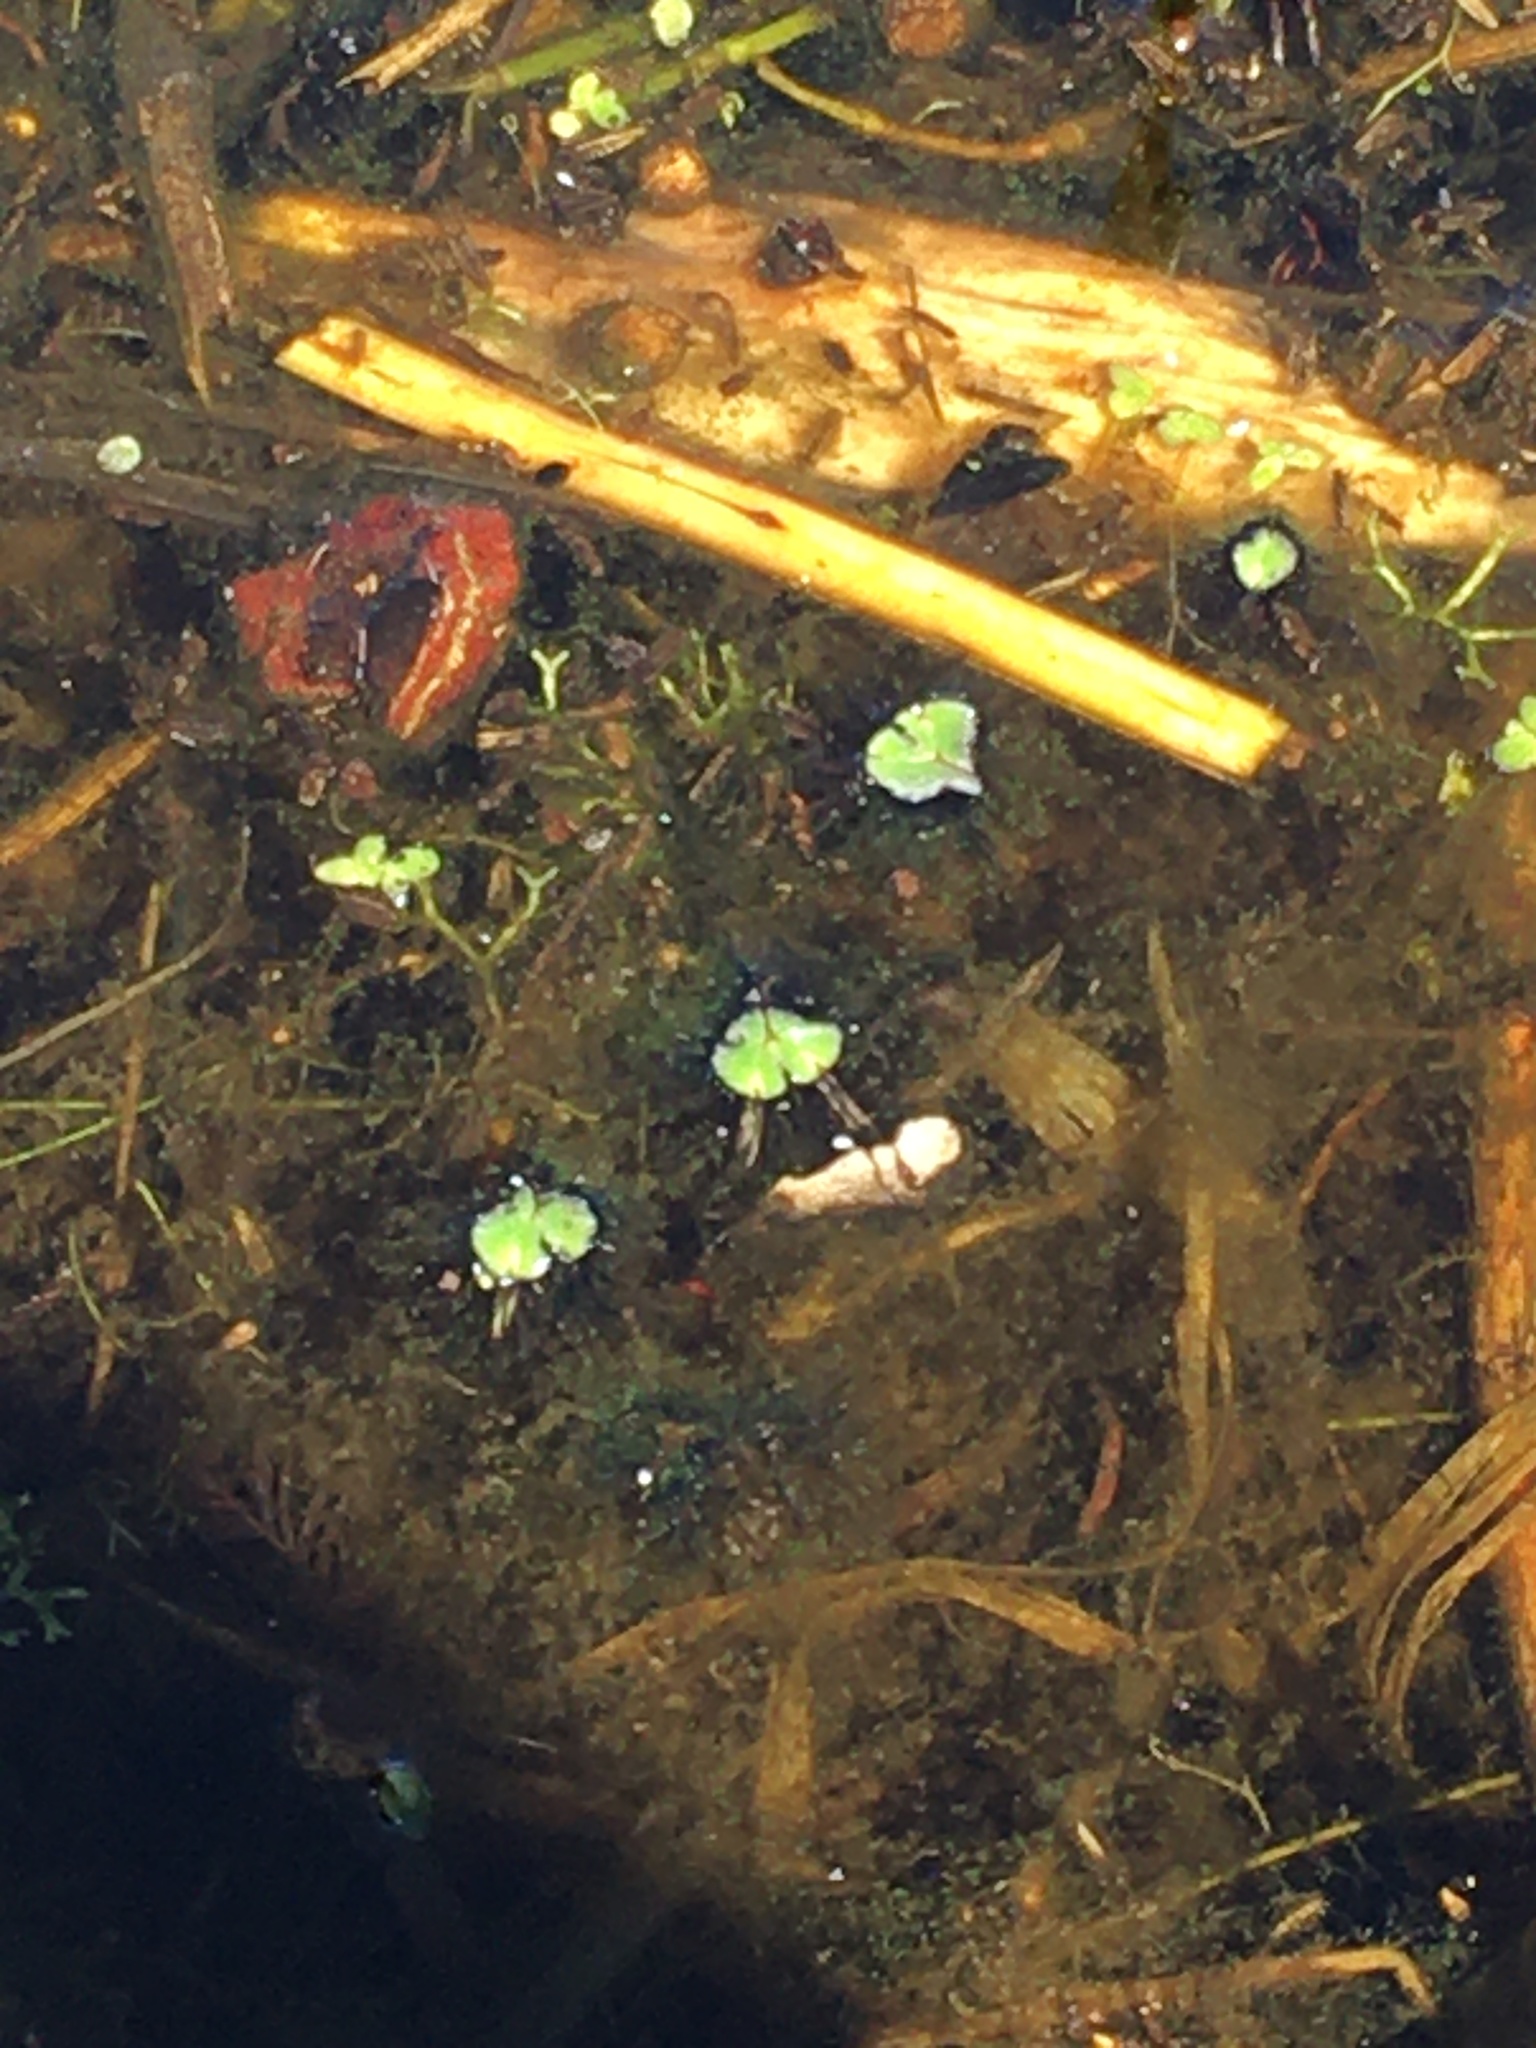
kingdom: Plantae
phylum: Marchantiophyta
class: Marchantiopsida
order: Marchantiales
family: Ricciaceae
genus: Ricciocarpos
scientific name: Ricciocarpos natans
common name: Purple-fringed liverwort
